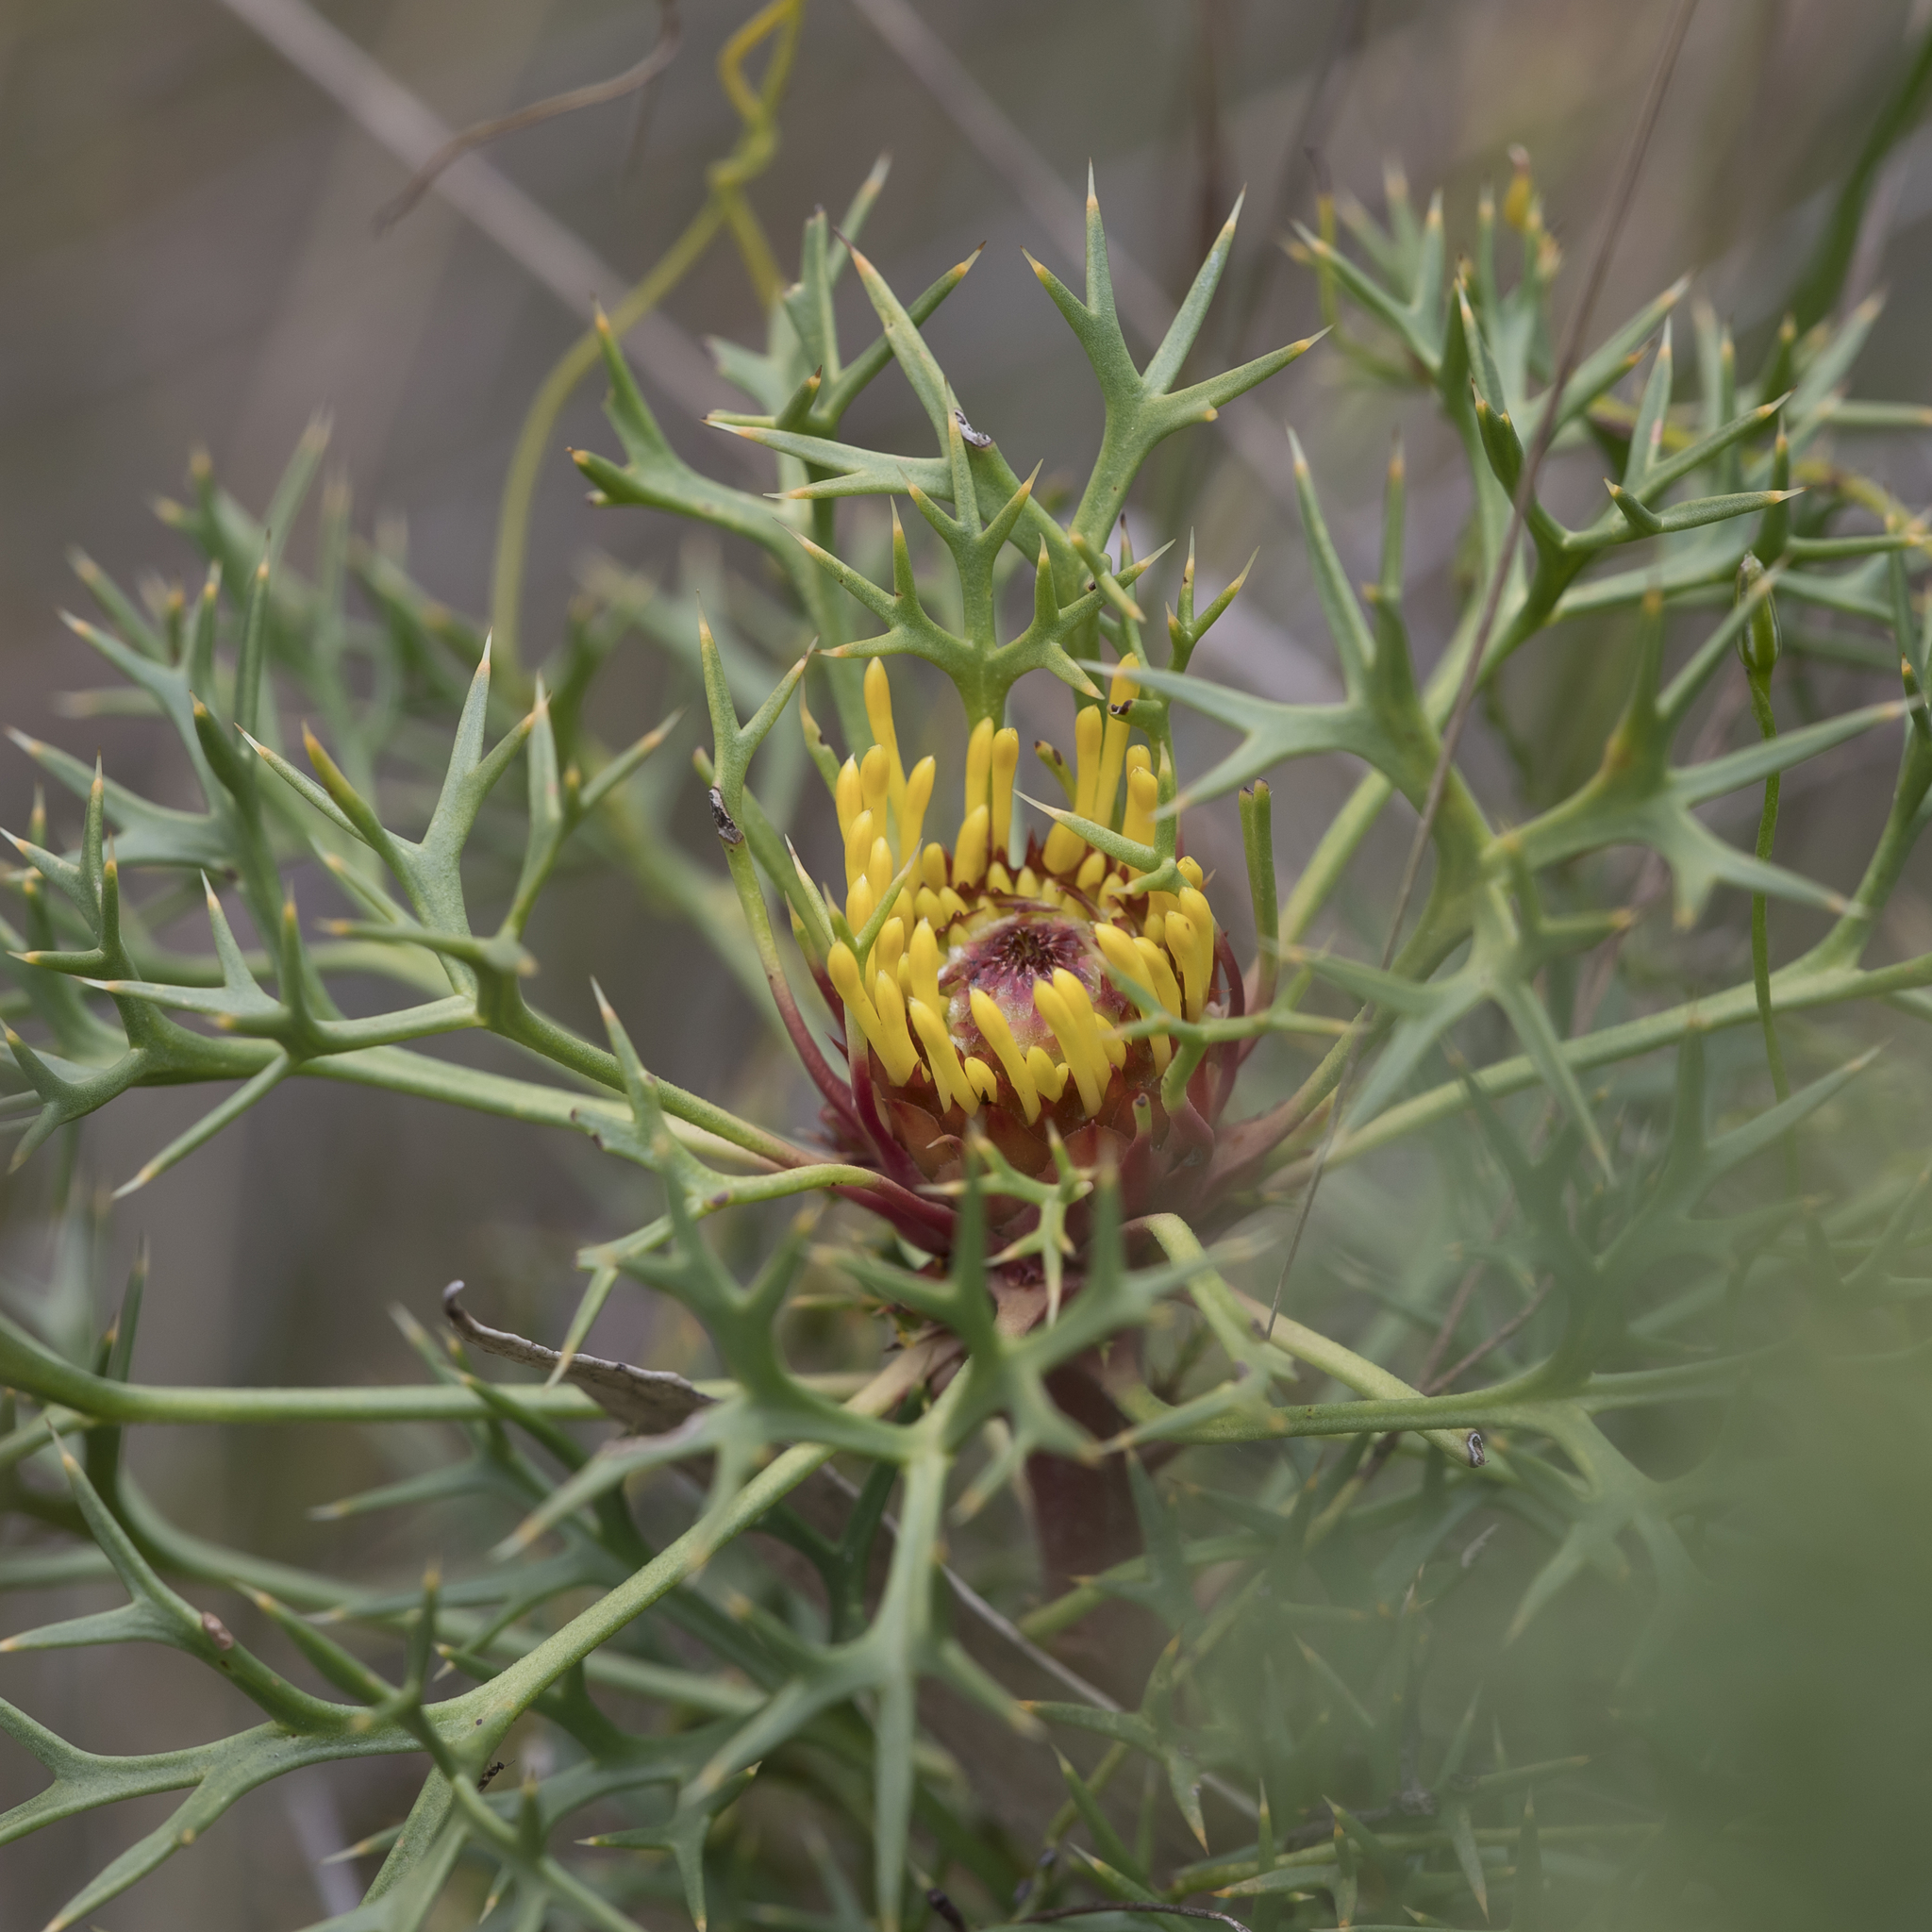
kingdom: Plantae
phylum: Tracheophyta
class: Magnoliopsida
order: Proteales
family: Proteaceae
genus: Isopogon
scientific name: Isopogon ceratophyllus
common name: Horny cone-bush
